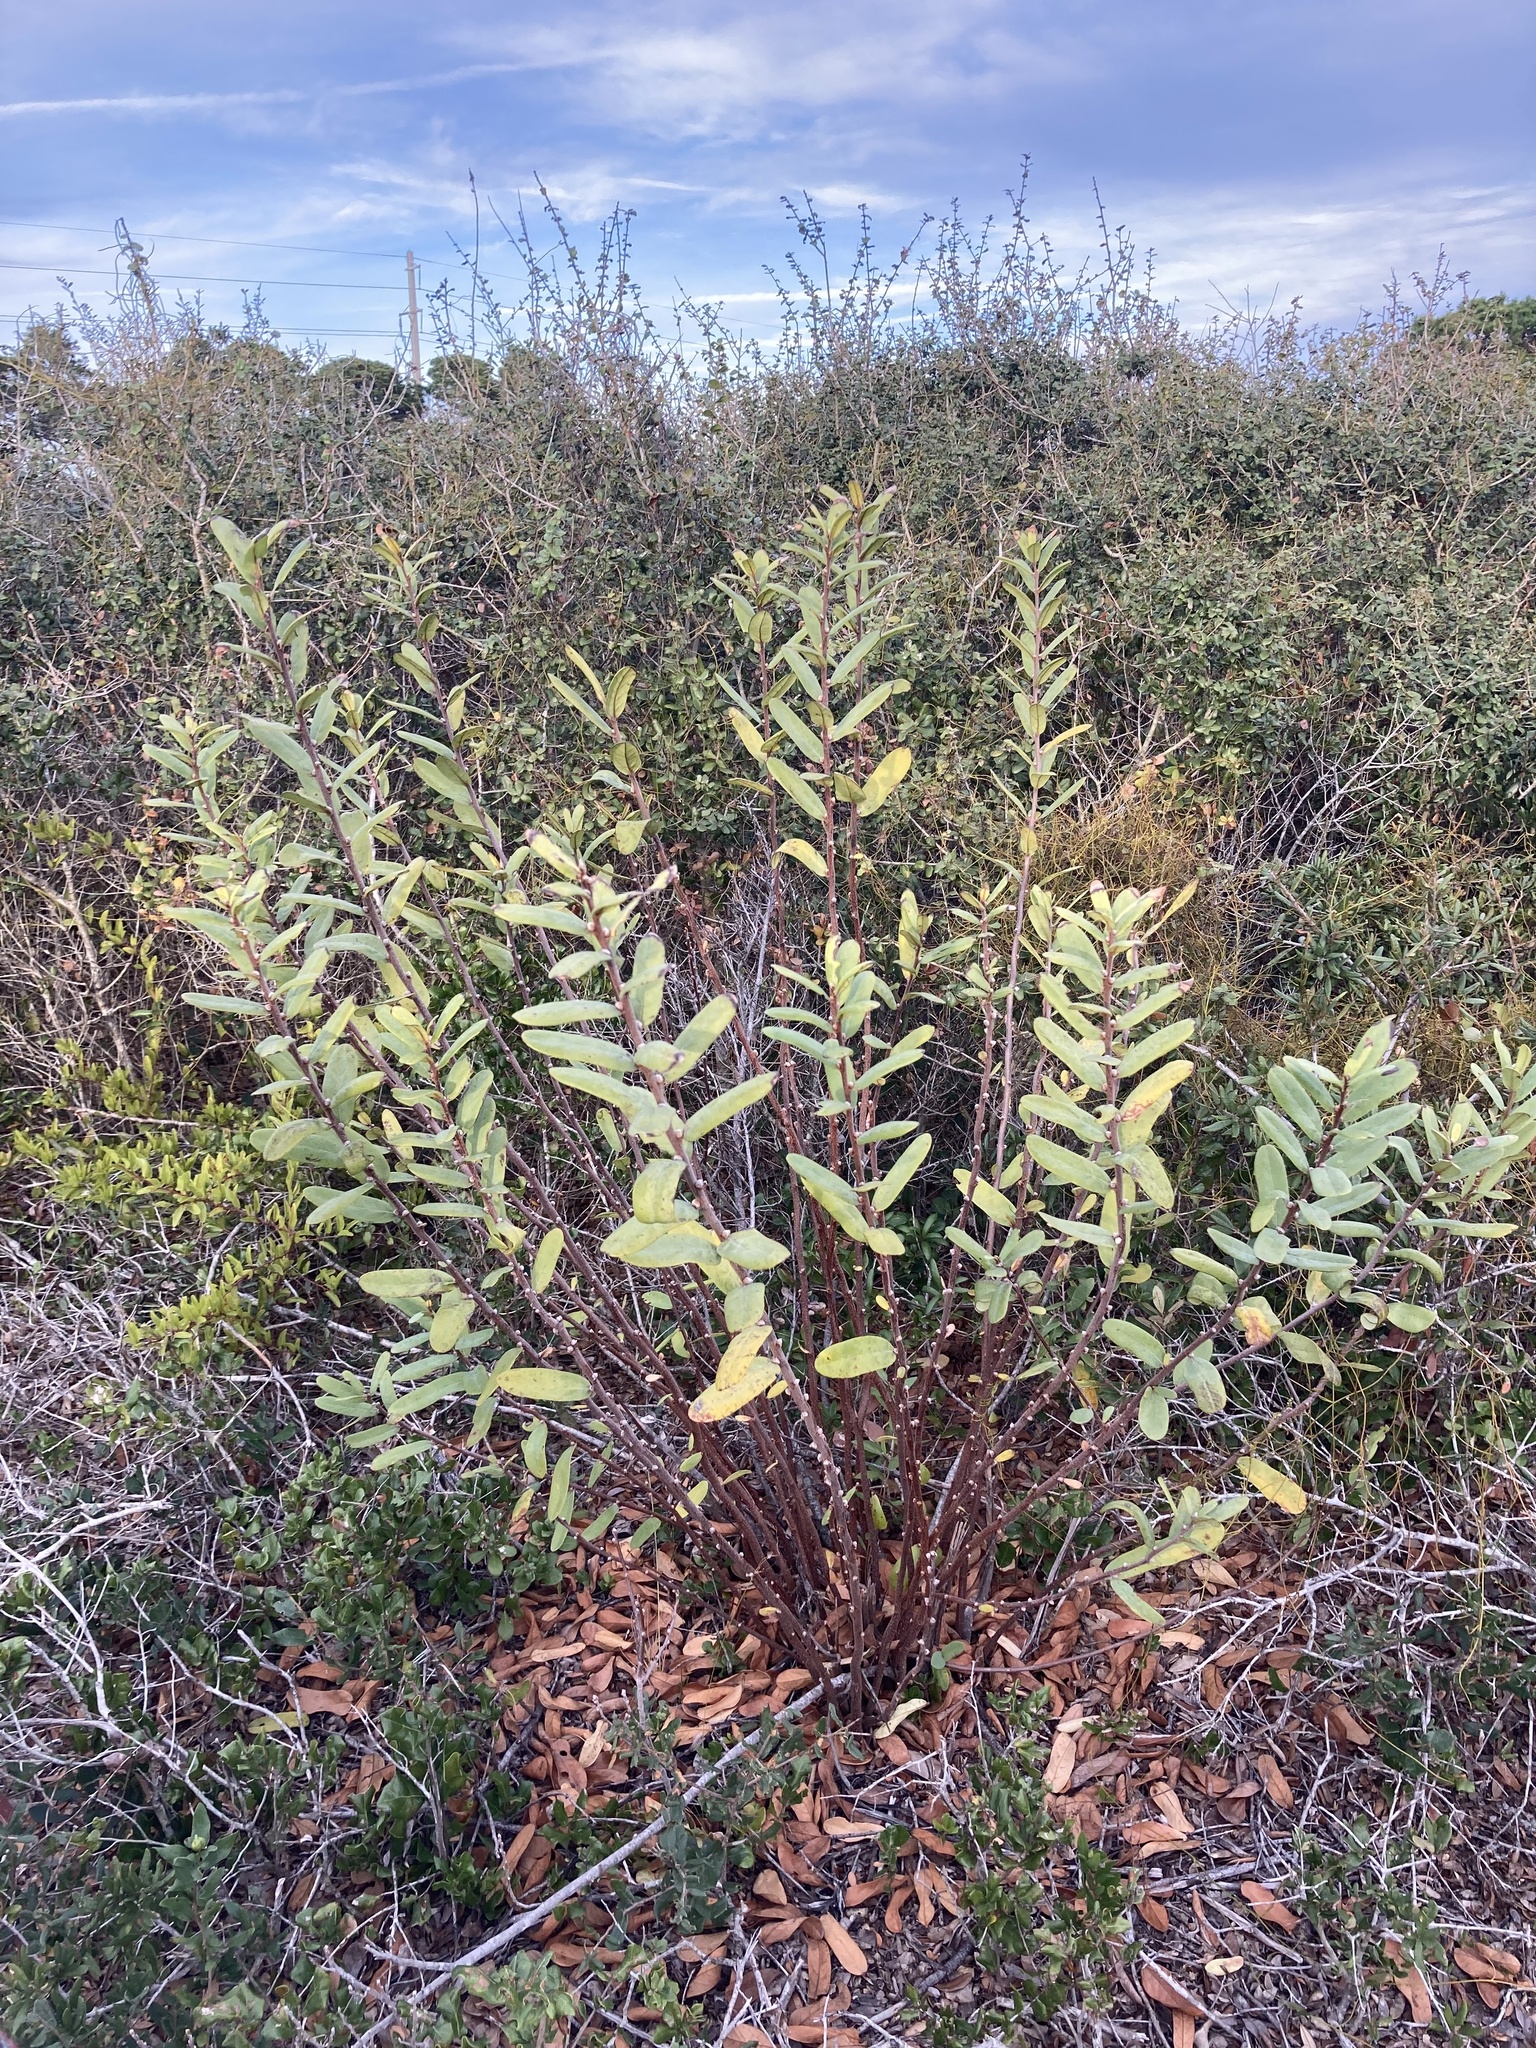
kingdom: Plantae
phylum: Tracheophyta
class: Magnoliopsida
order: Magnoliales
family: Annonaceae
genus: Asimina
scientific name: Asimina reticulata
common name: Flag pawpaw
